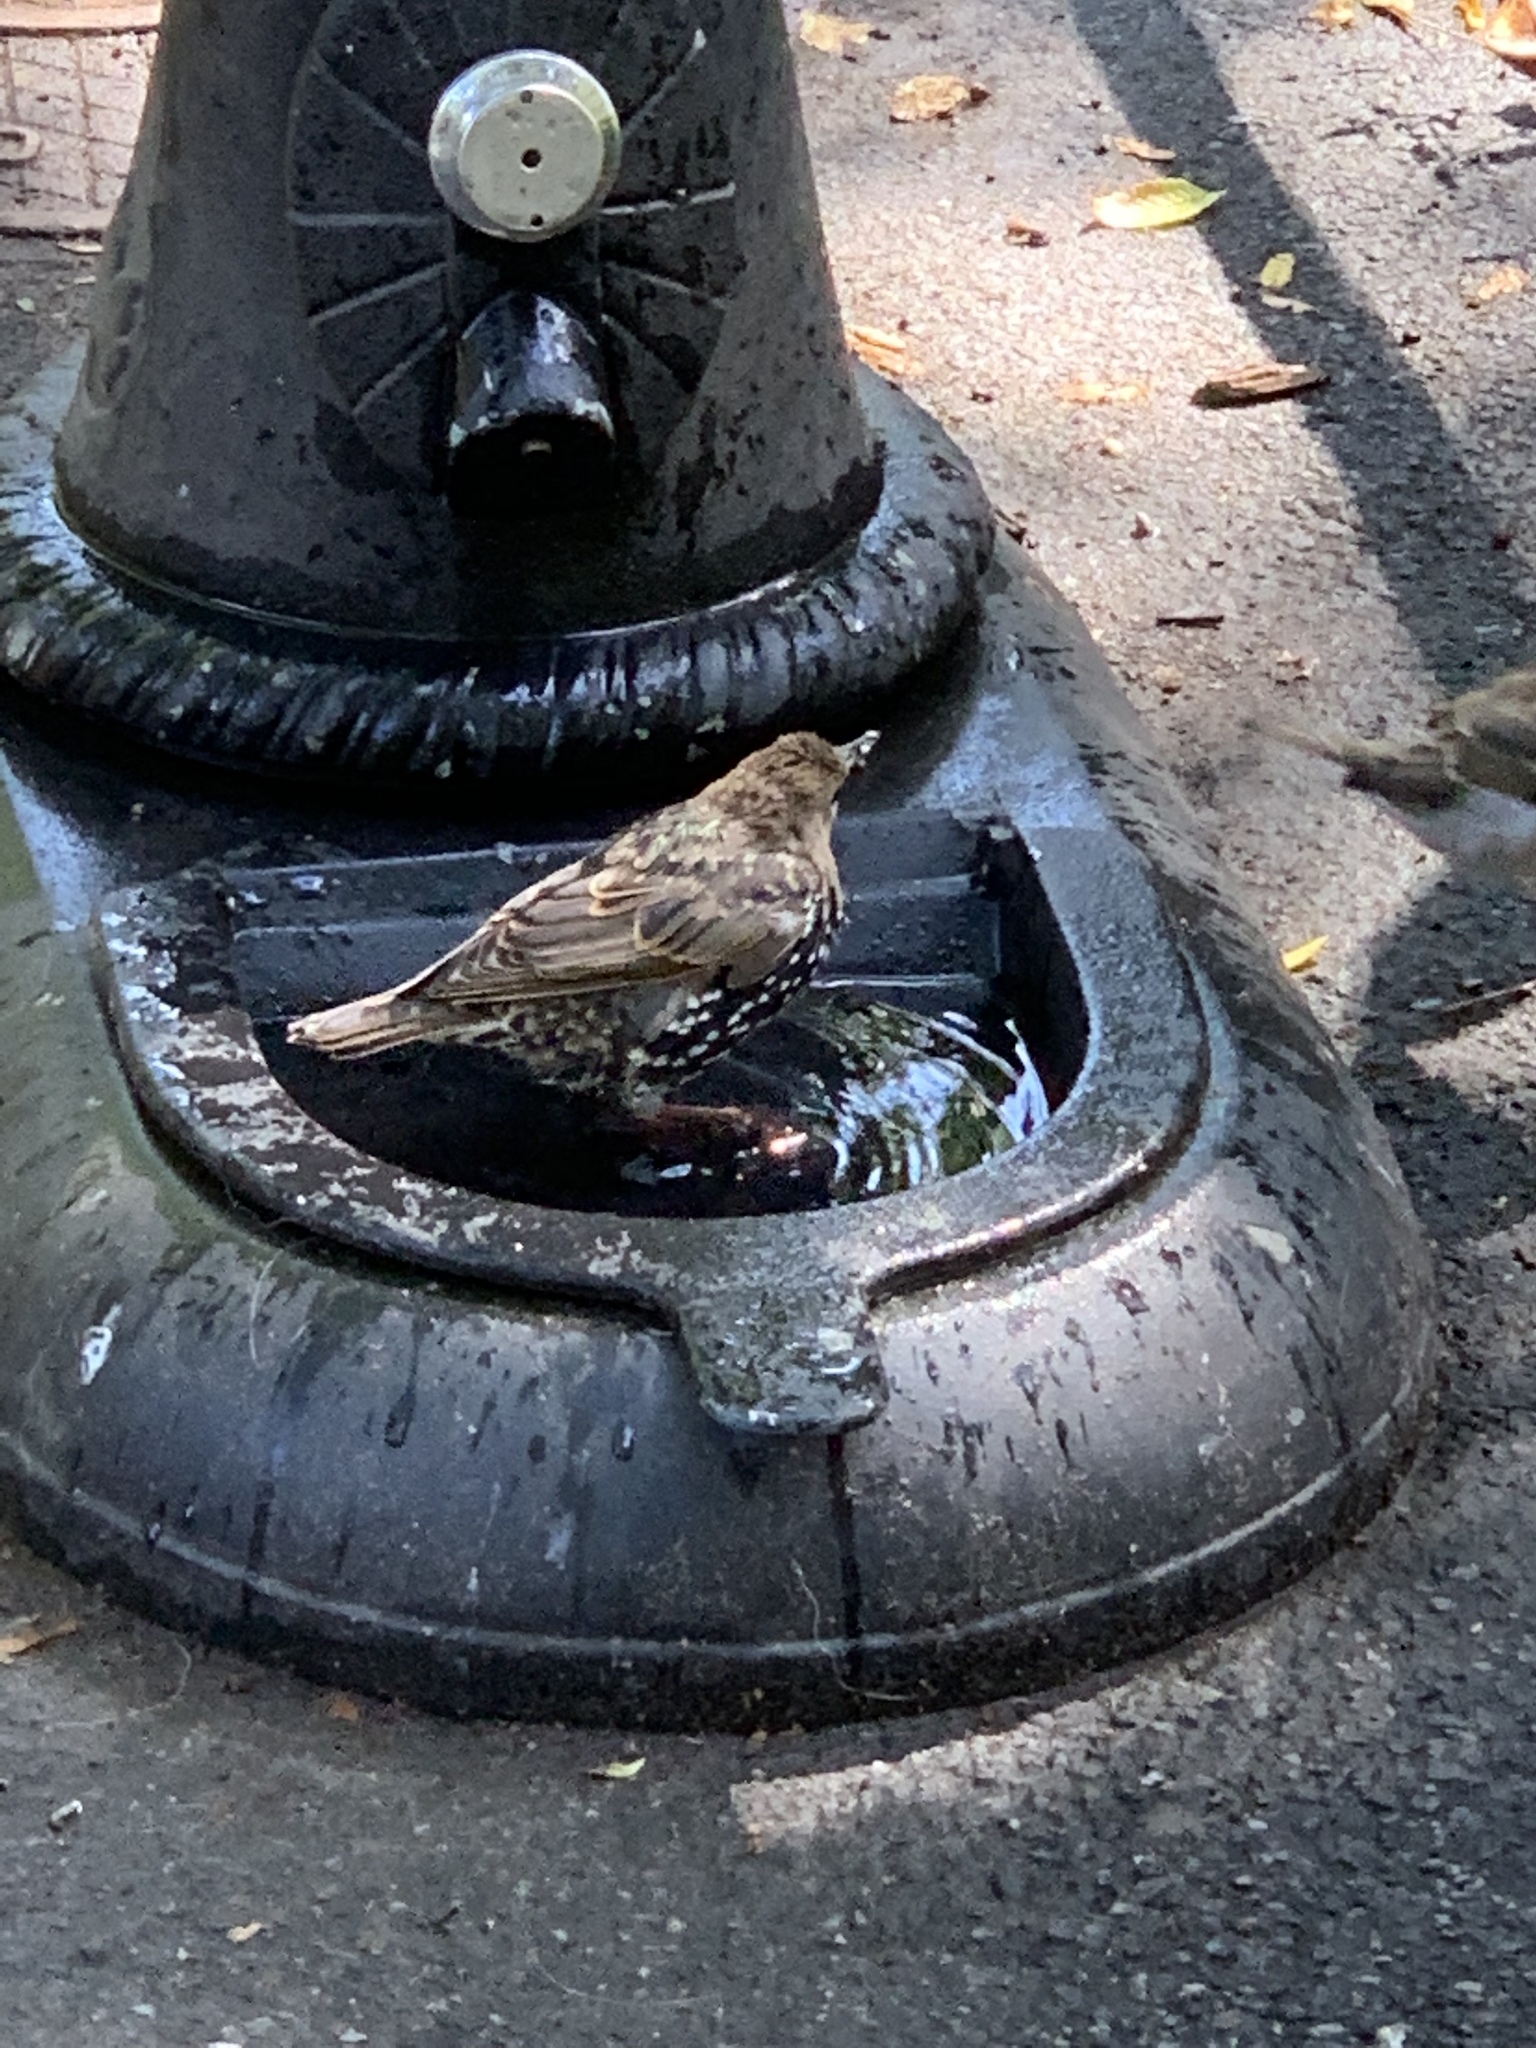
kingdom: Animalia
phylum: Chordata
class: Aves
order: Passeriformes
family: Sturnidae
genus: Sturnus
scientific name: Sturnus vulgaris
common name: Common starling
